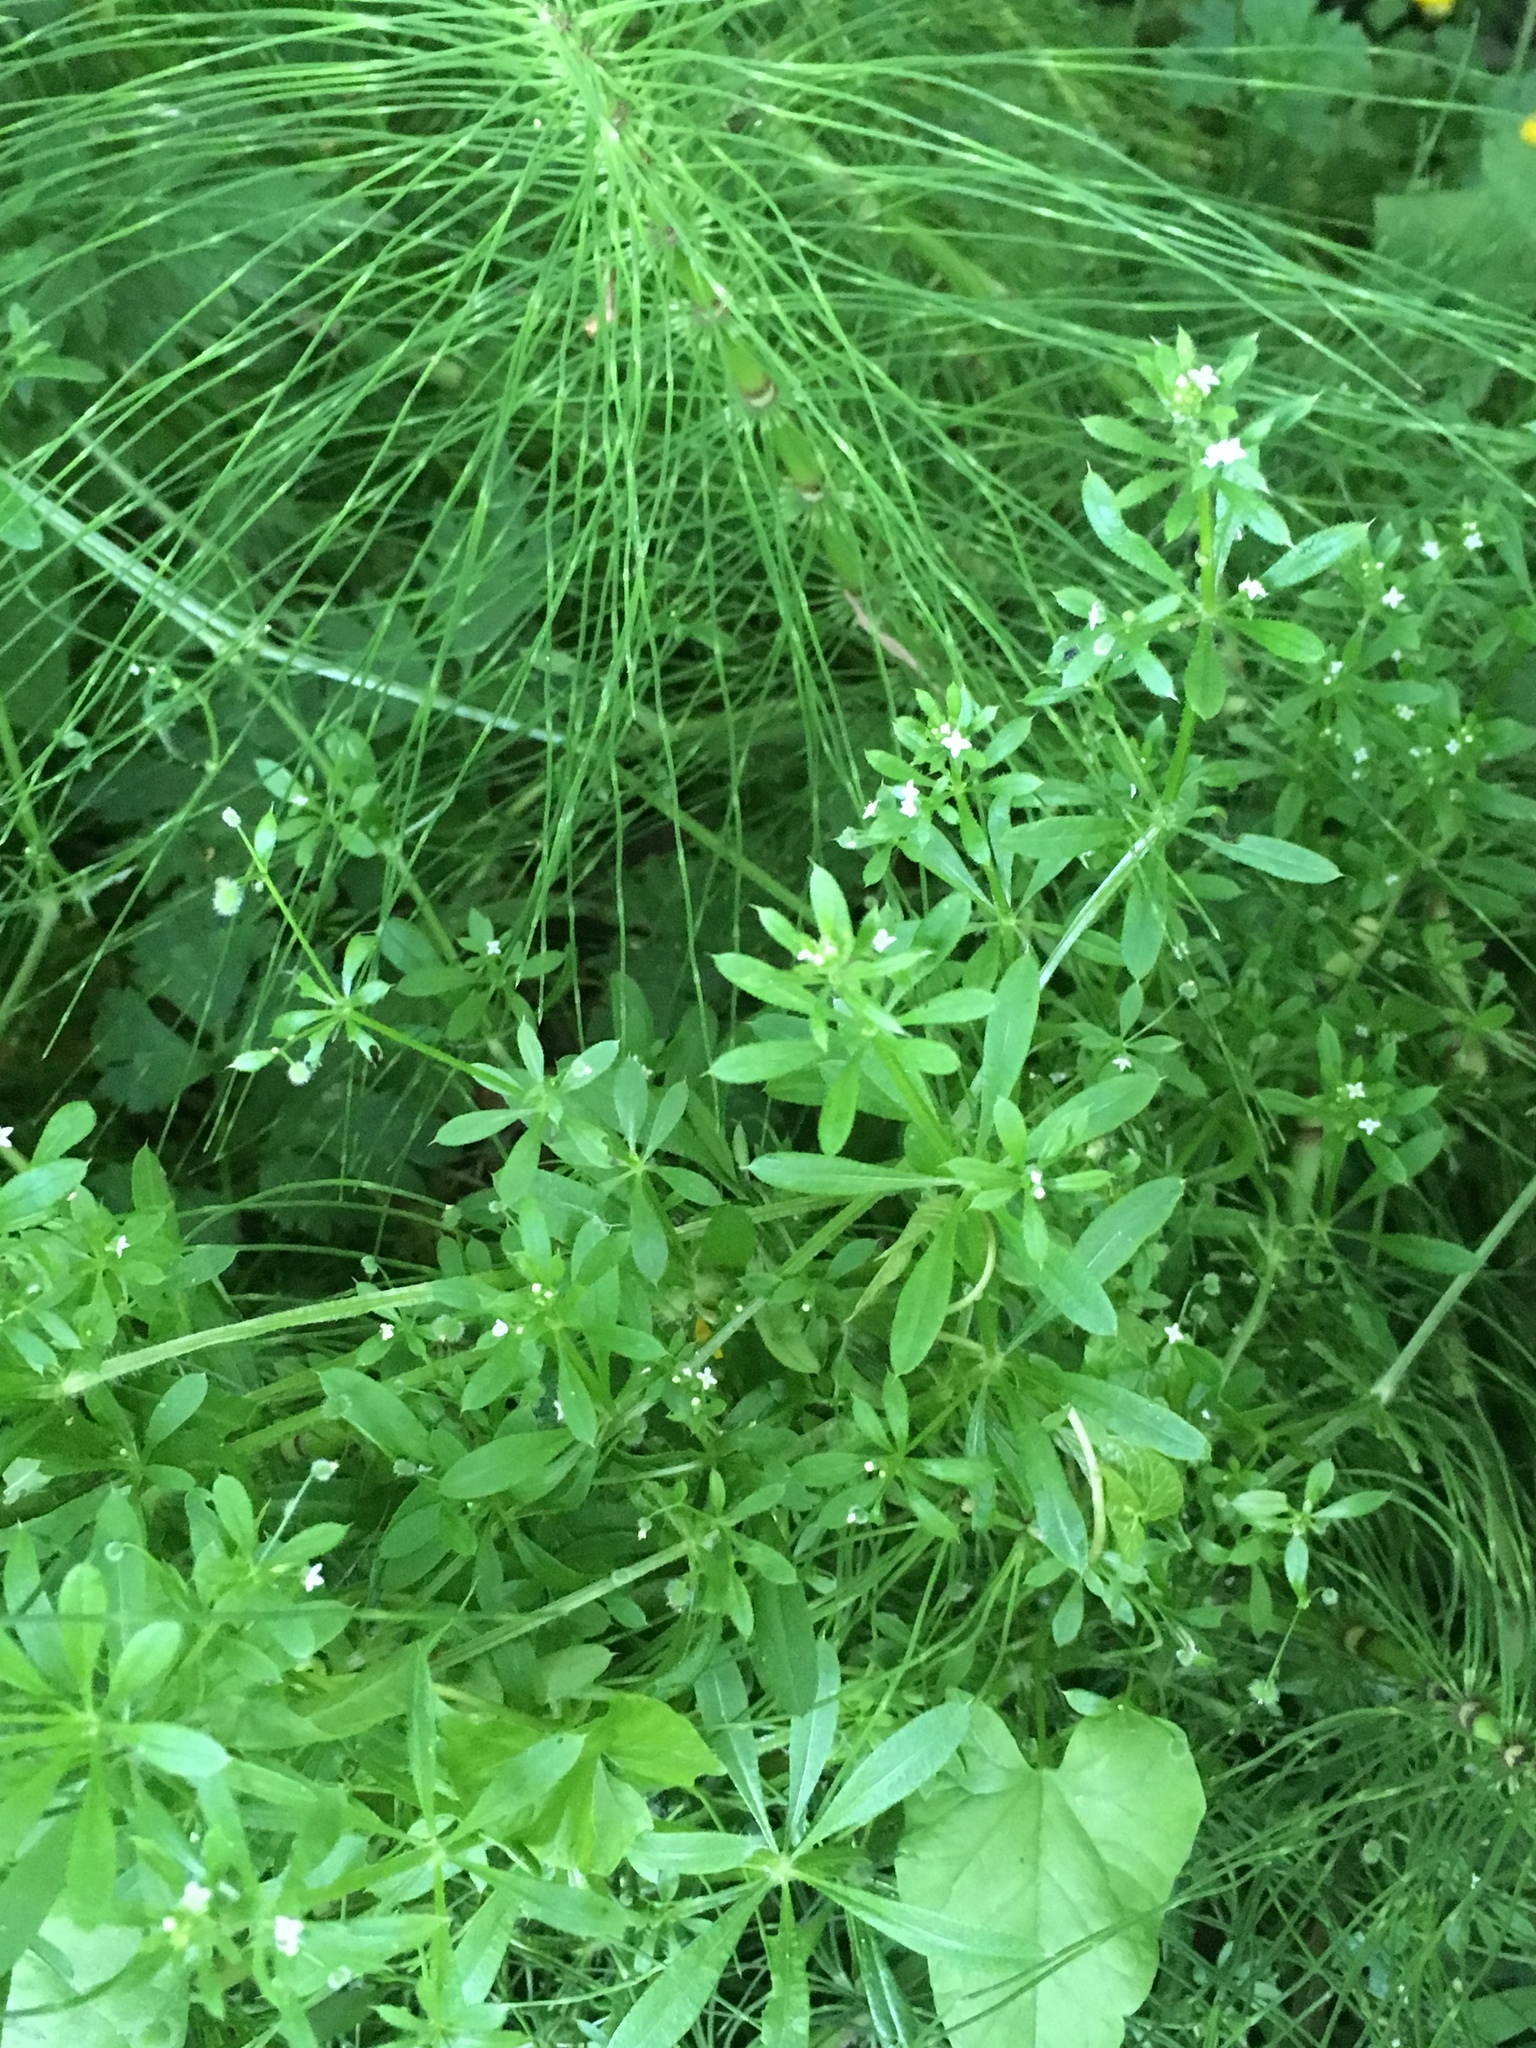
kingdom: Plantae
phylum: Tracheophyta
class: Magnoliopsida
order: Gentianales
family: Rubiaceae
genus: Galium
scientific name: Galium aparine
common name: Cleavers
